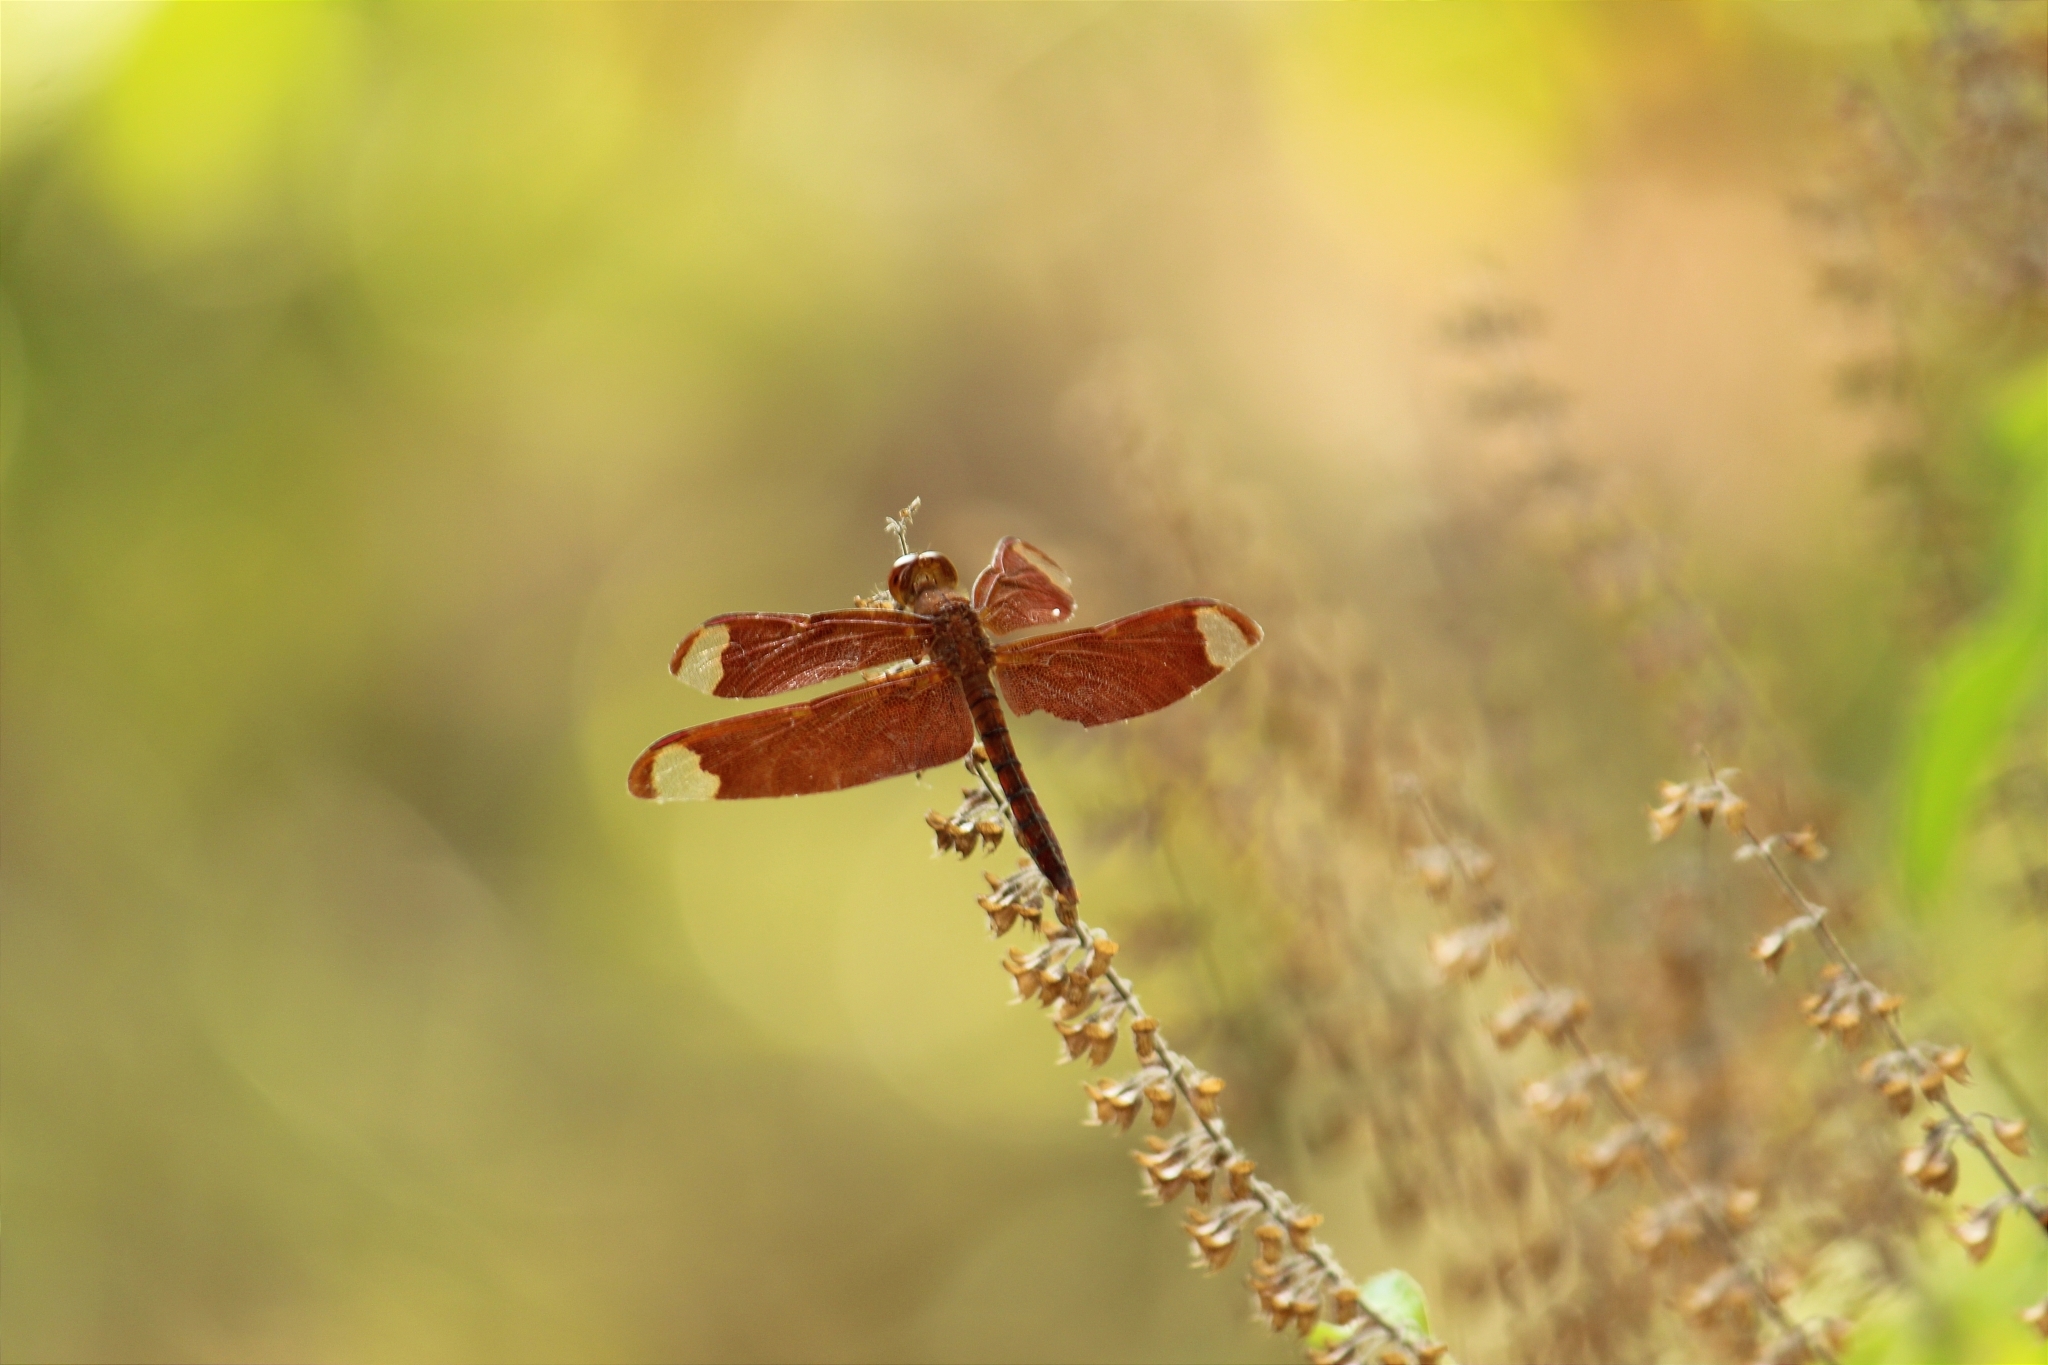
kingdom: Animalia
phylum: Arthropoda
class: Insecta
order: Odonata
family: Libellulidae
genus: Neurothemis
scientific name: Neurothemis fulvia
